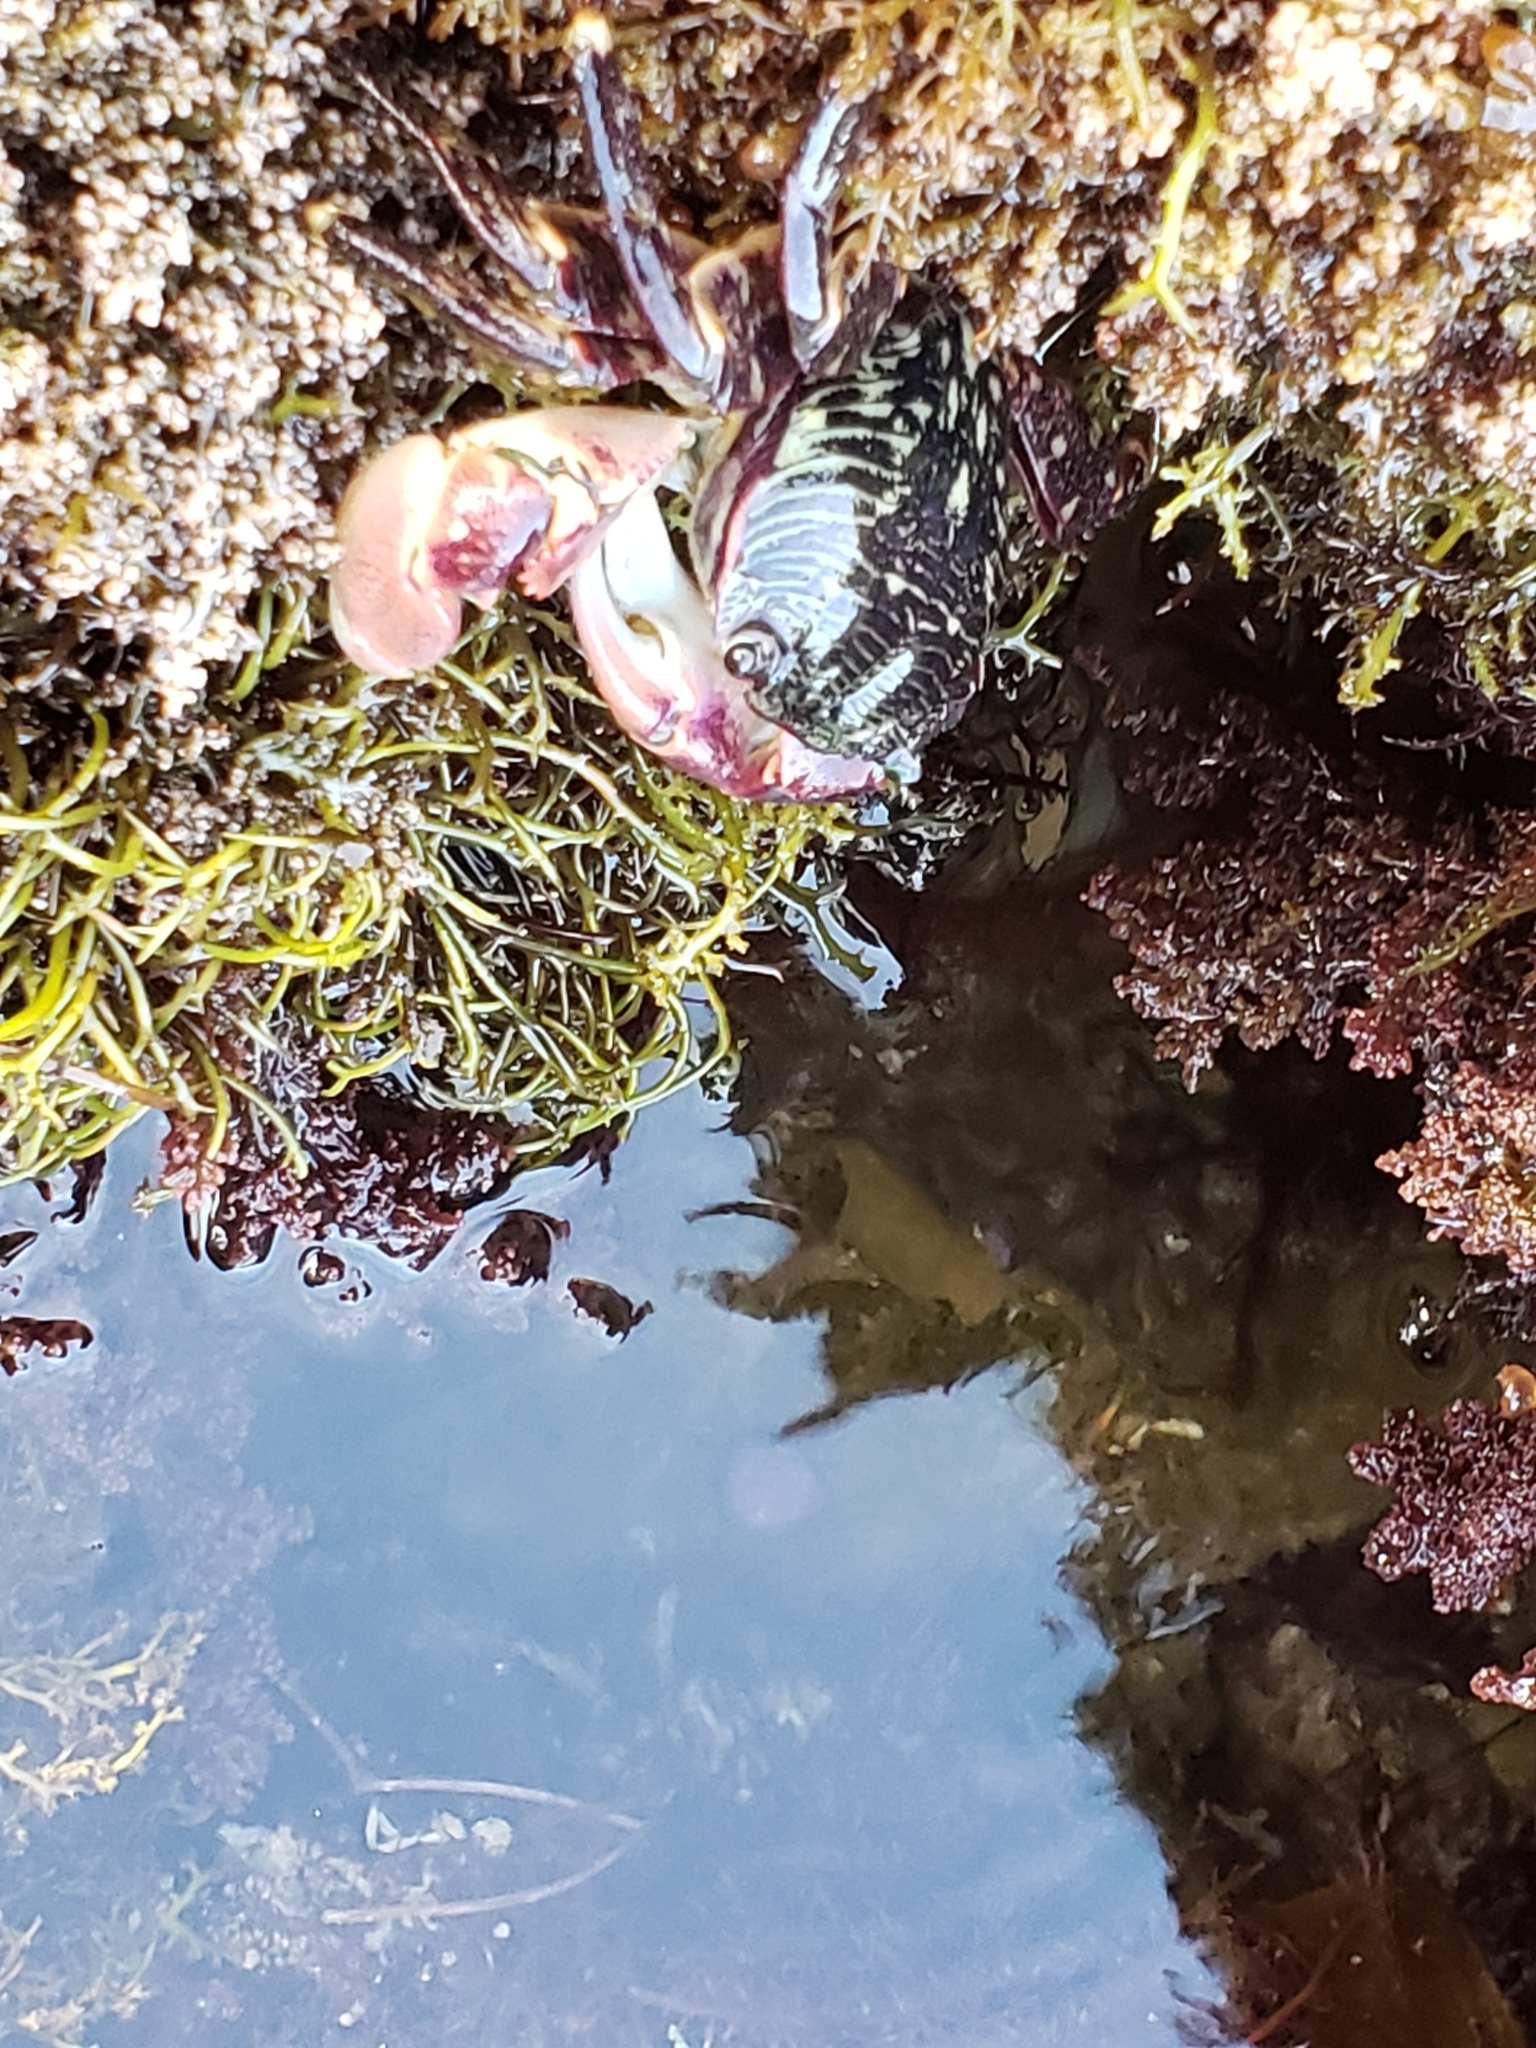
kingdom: Animalia
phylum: Arthropoda
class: Malacostraca
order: Decapoda
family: Grapsidae
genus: Pachygrapsus
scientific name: Pachygrapsus crassipes
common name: Striped shore crab
